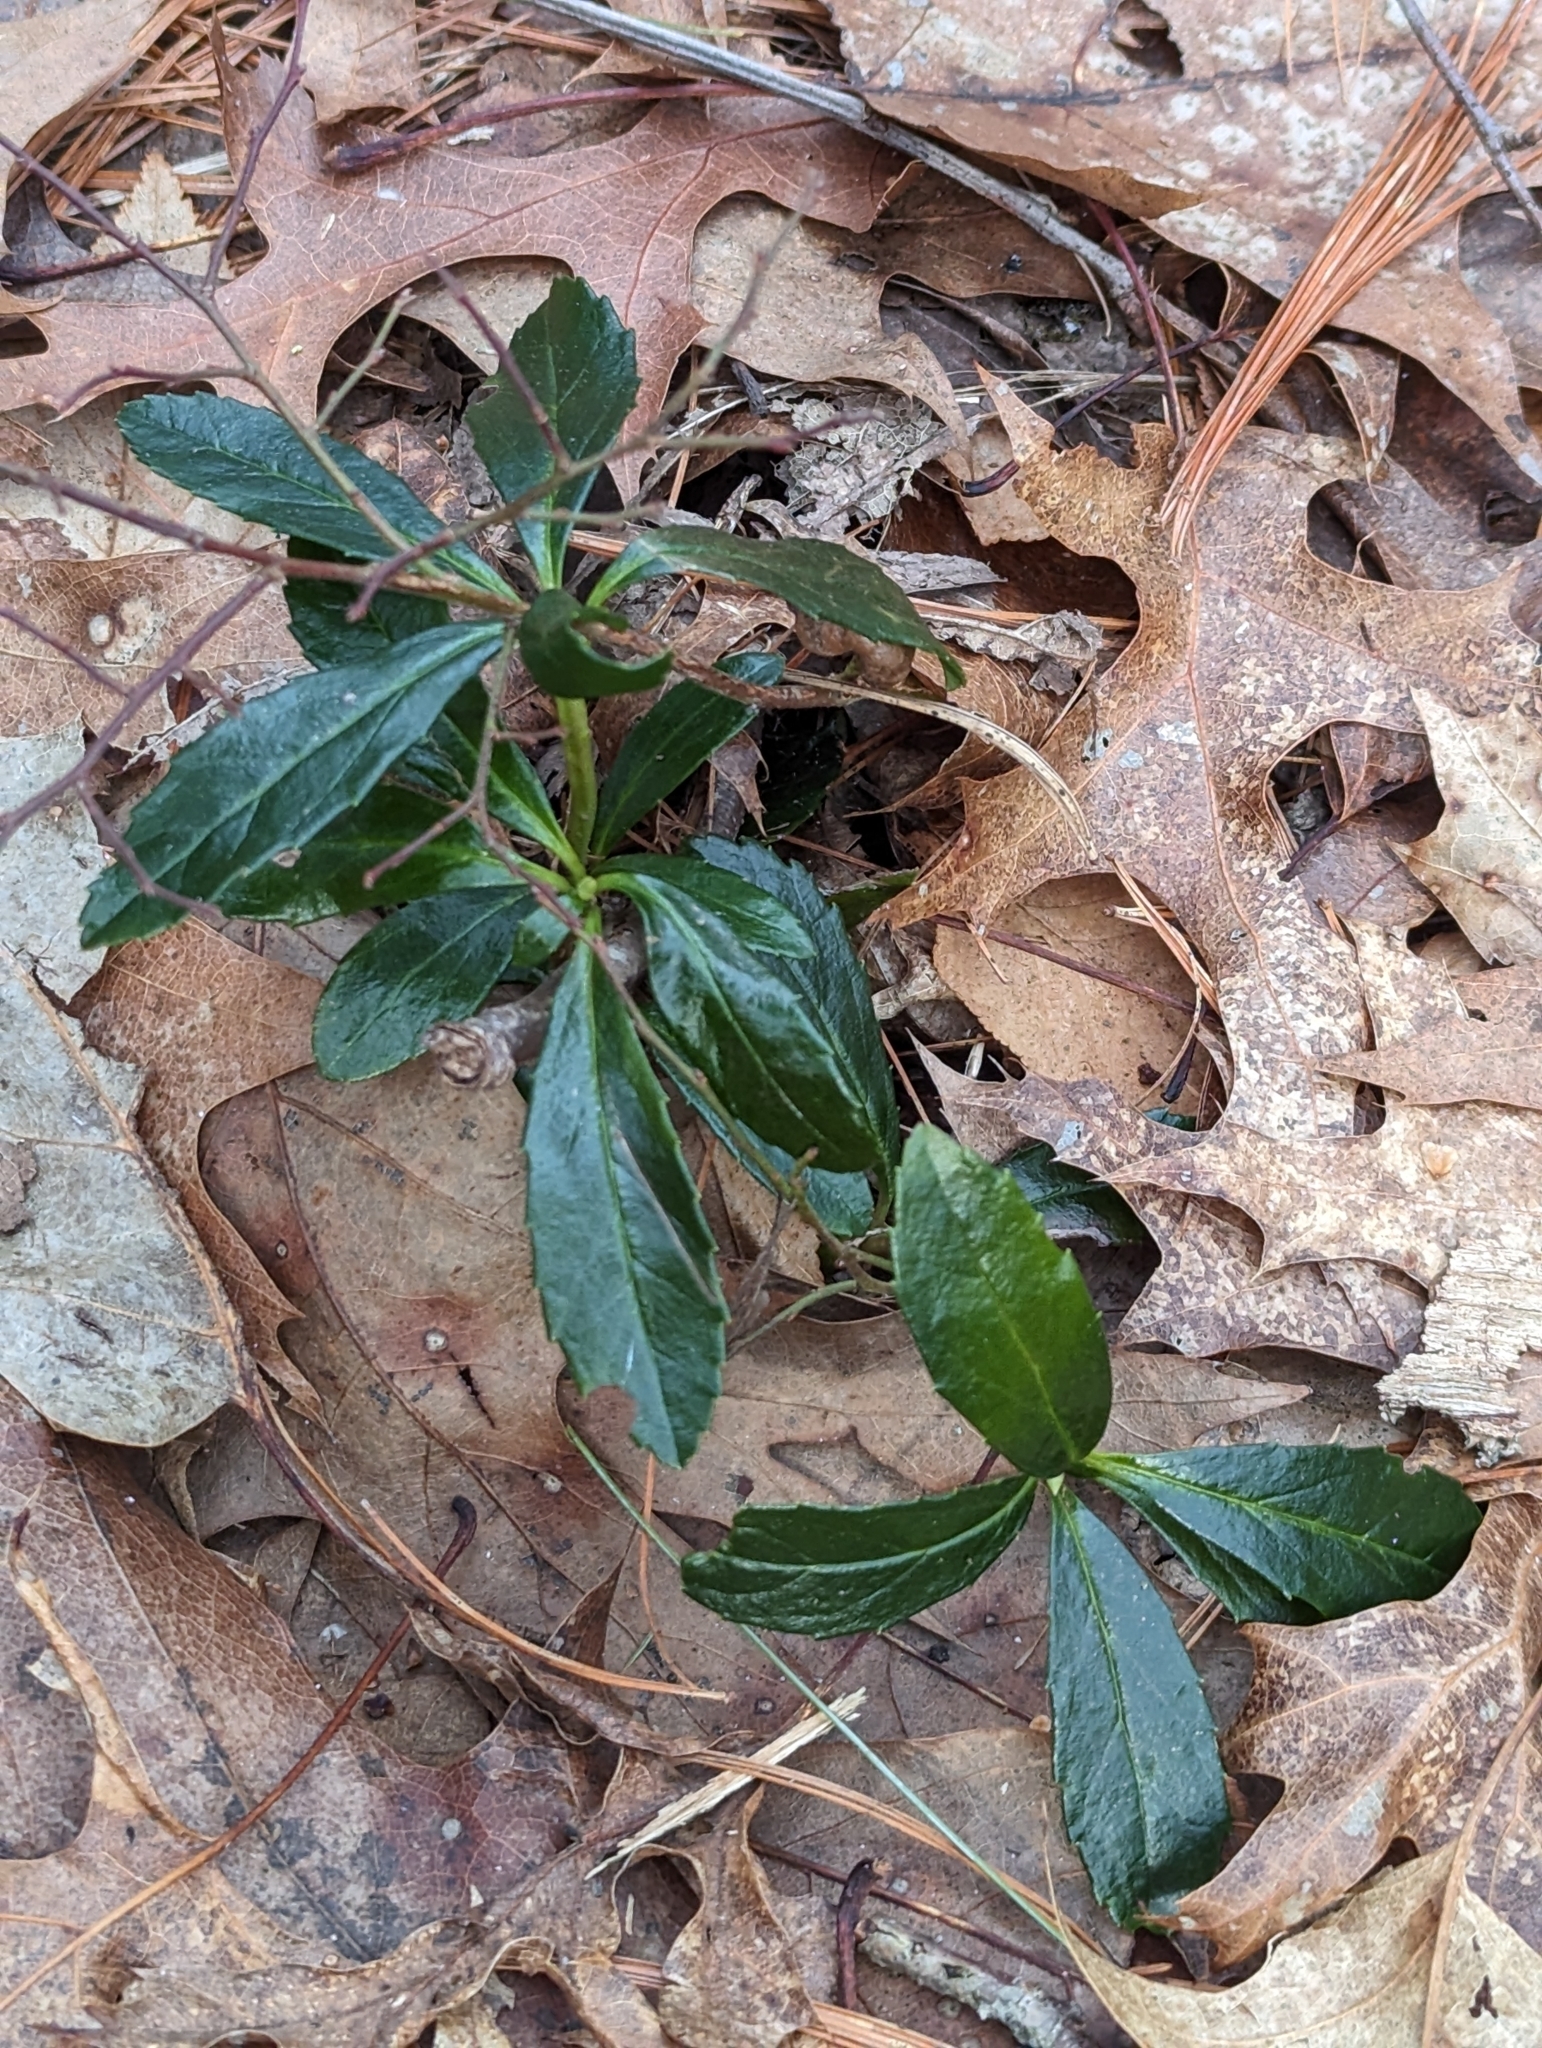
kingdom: Plantae
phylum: Tracheophyta
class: Magnoliopsida
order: Ericales
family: Ericaceae
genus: Chimaphila
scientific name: Chimaphila umbellata
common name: Pipsissewa
